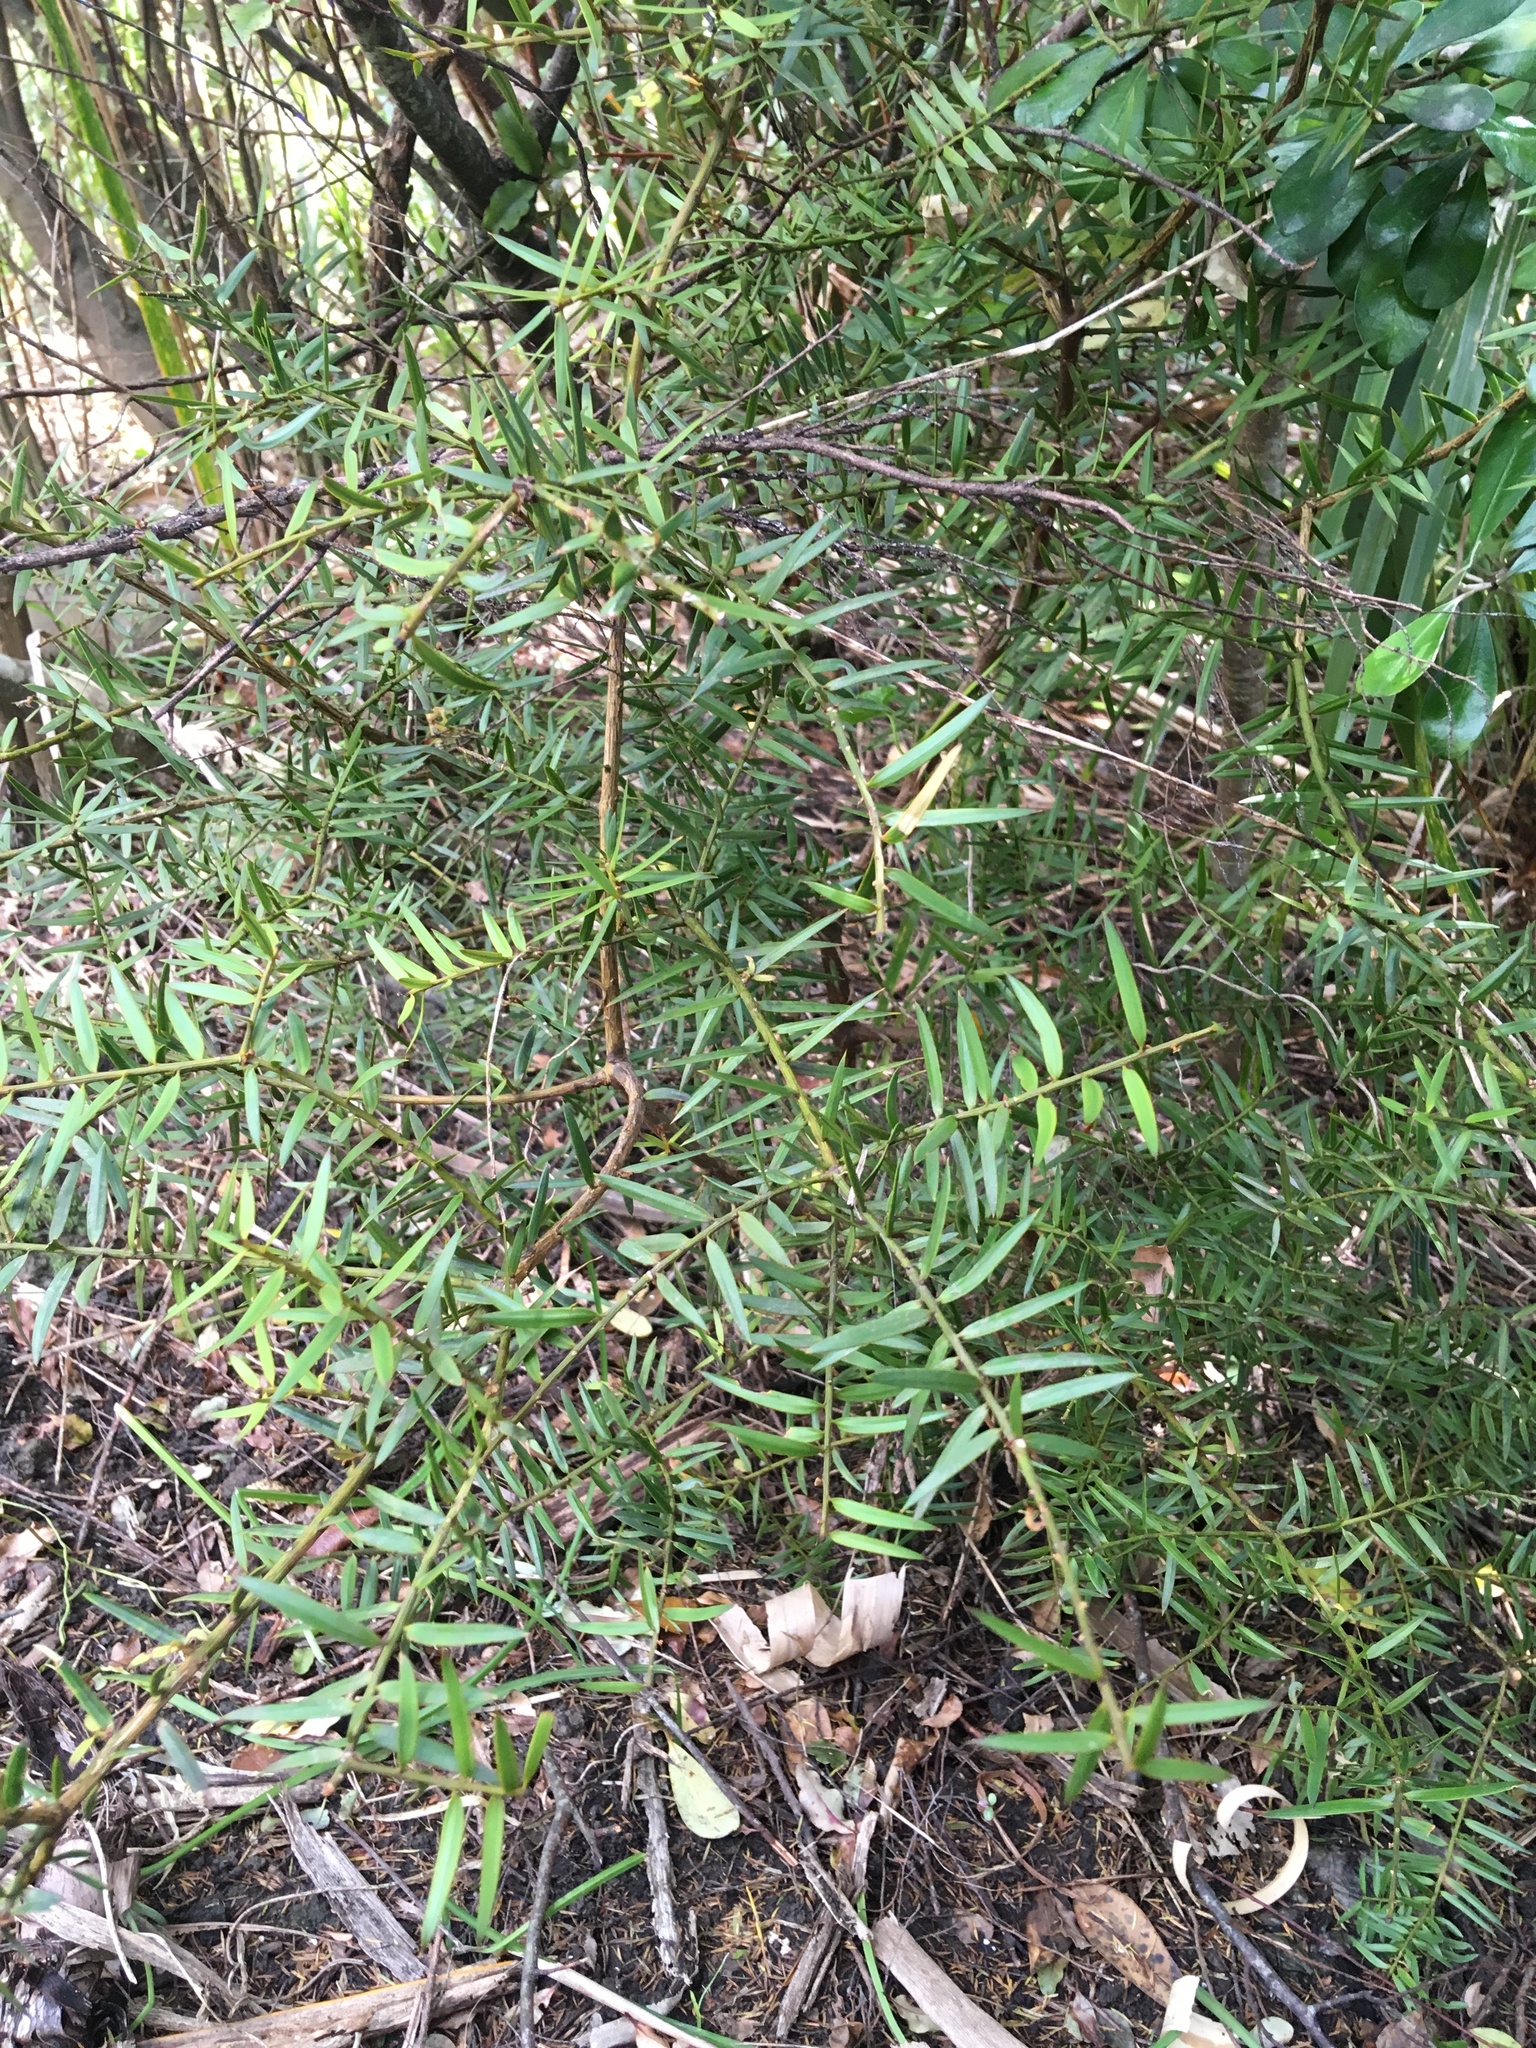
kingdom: Plantae
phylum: Tracheophyta
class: Pinopsida
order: Pinales
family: Podocarpaceae
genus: Podocarpus
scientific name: Podocarpus totara
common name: Totara
